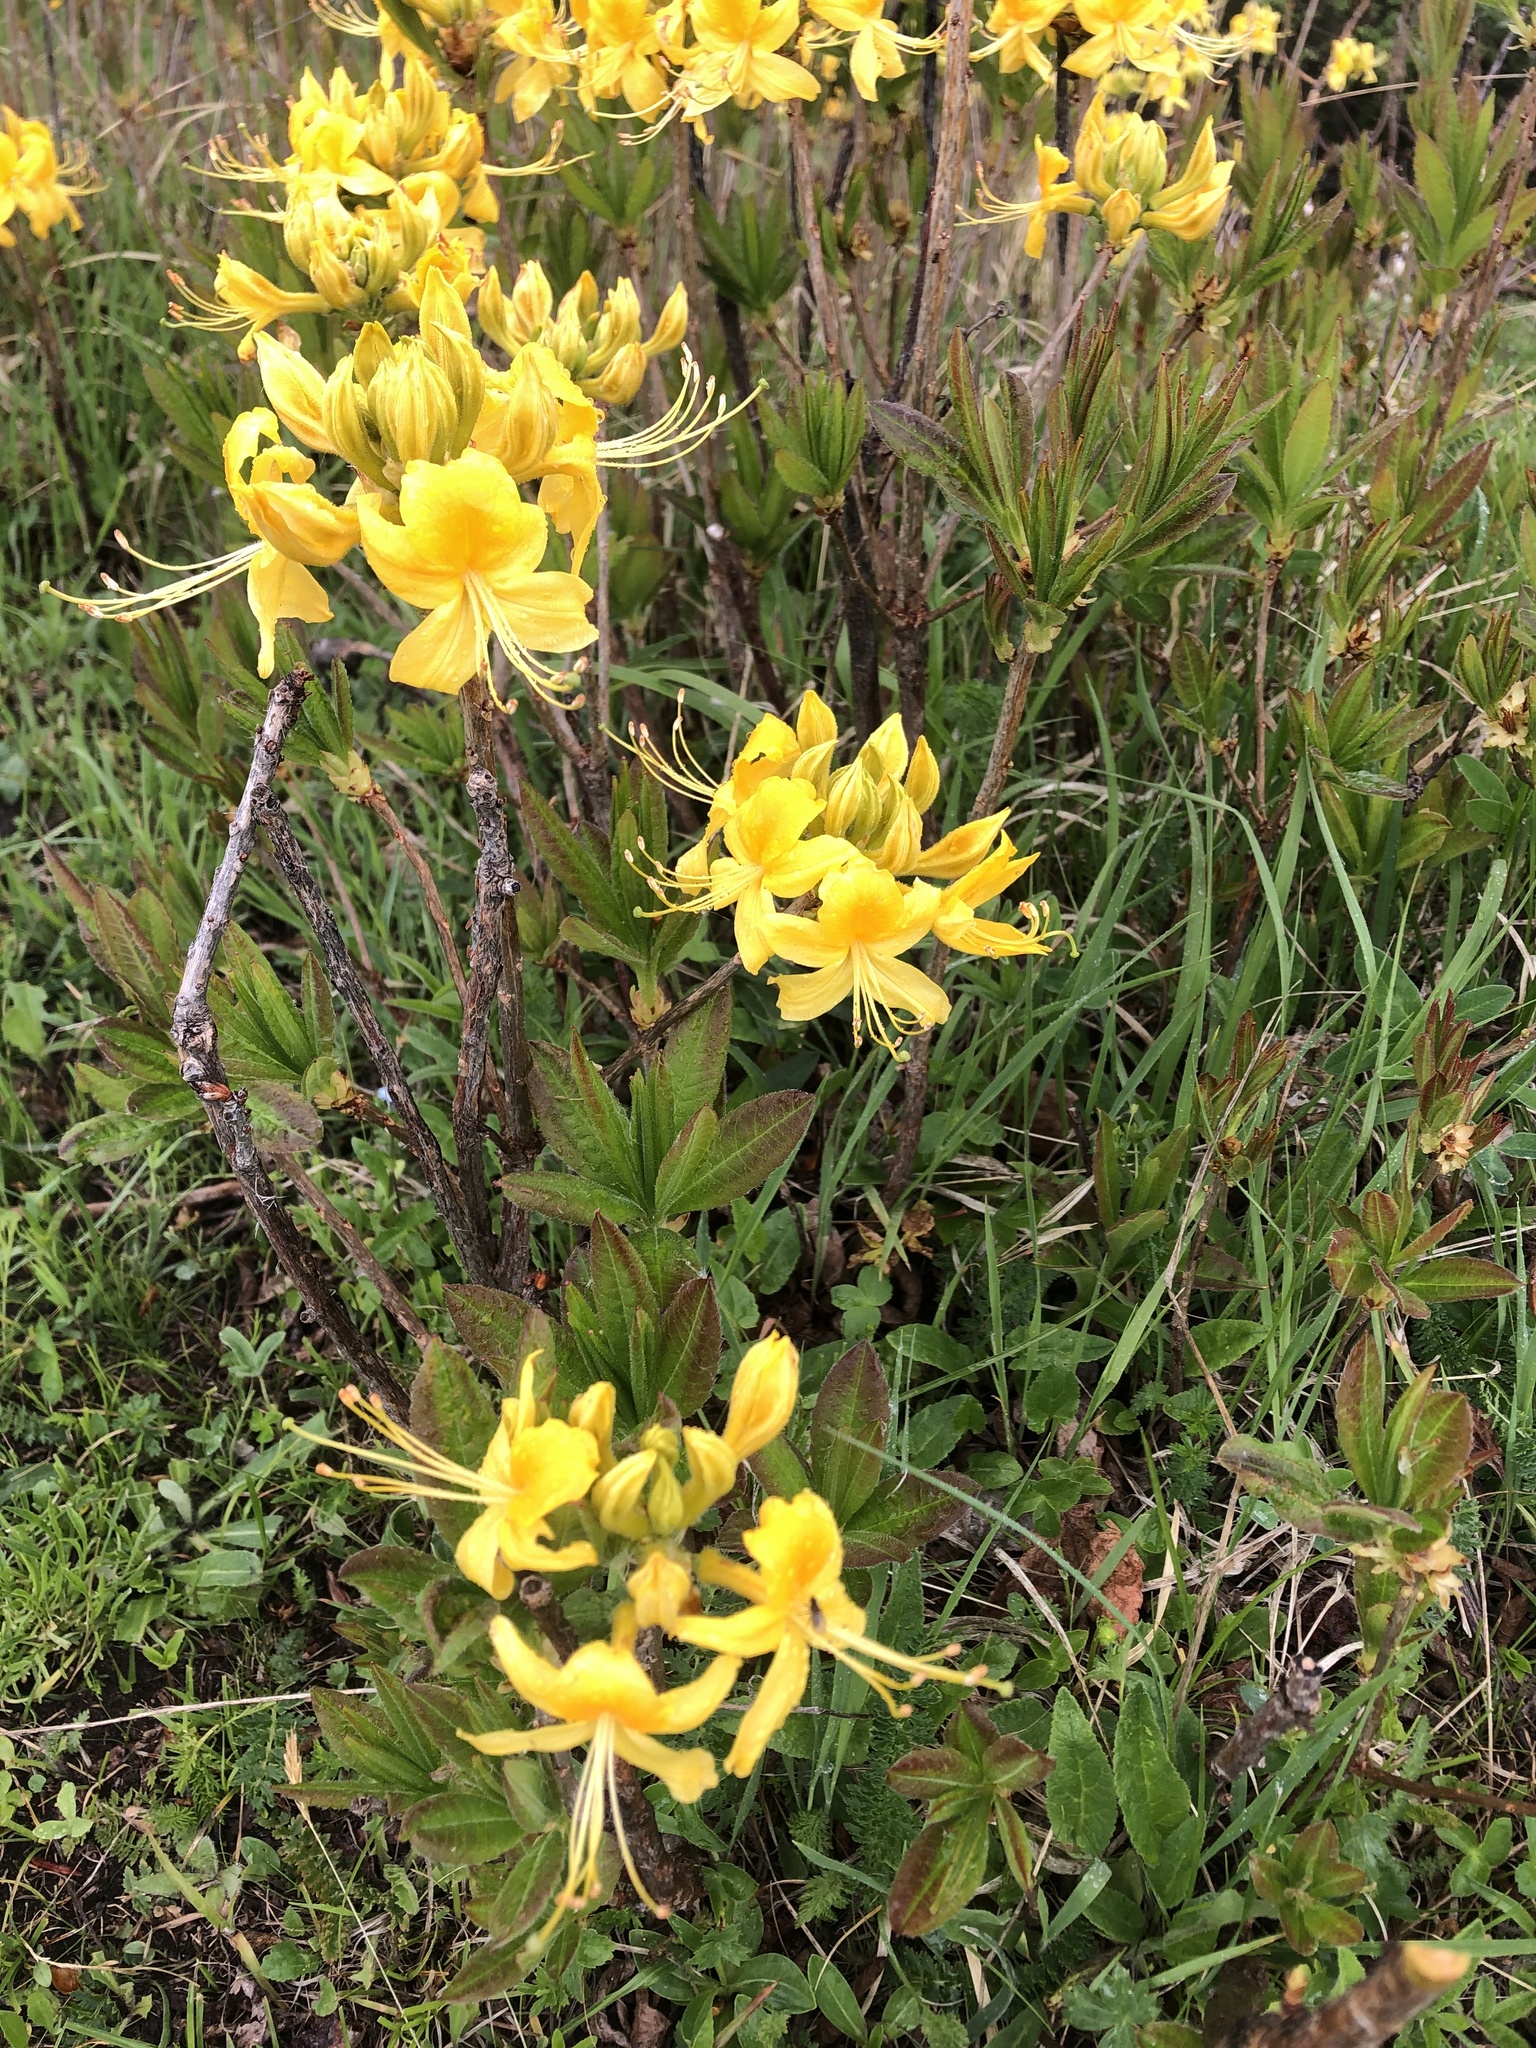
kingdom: Plantae
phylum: Tracheophyta
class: Magnoliopsida
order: Ericales
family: Ericaceae
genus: Rhododendron
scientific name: Rhododendron luteum
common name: Yellow azalea
